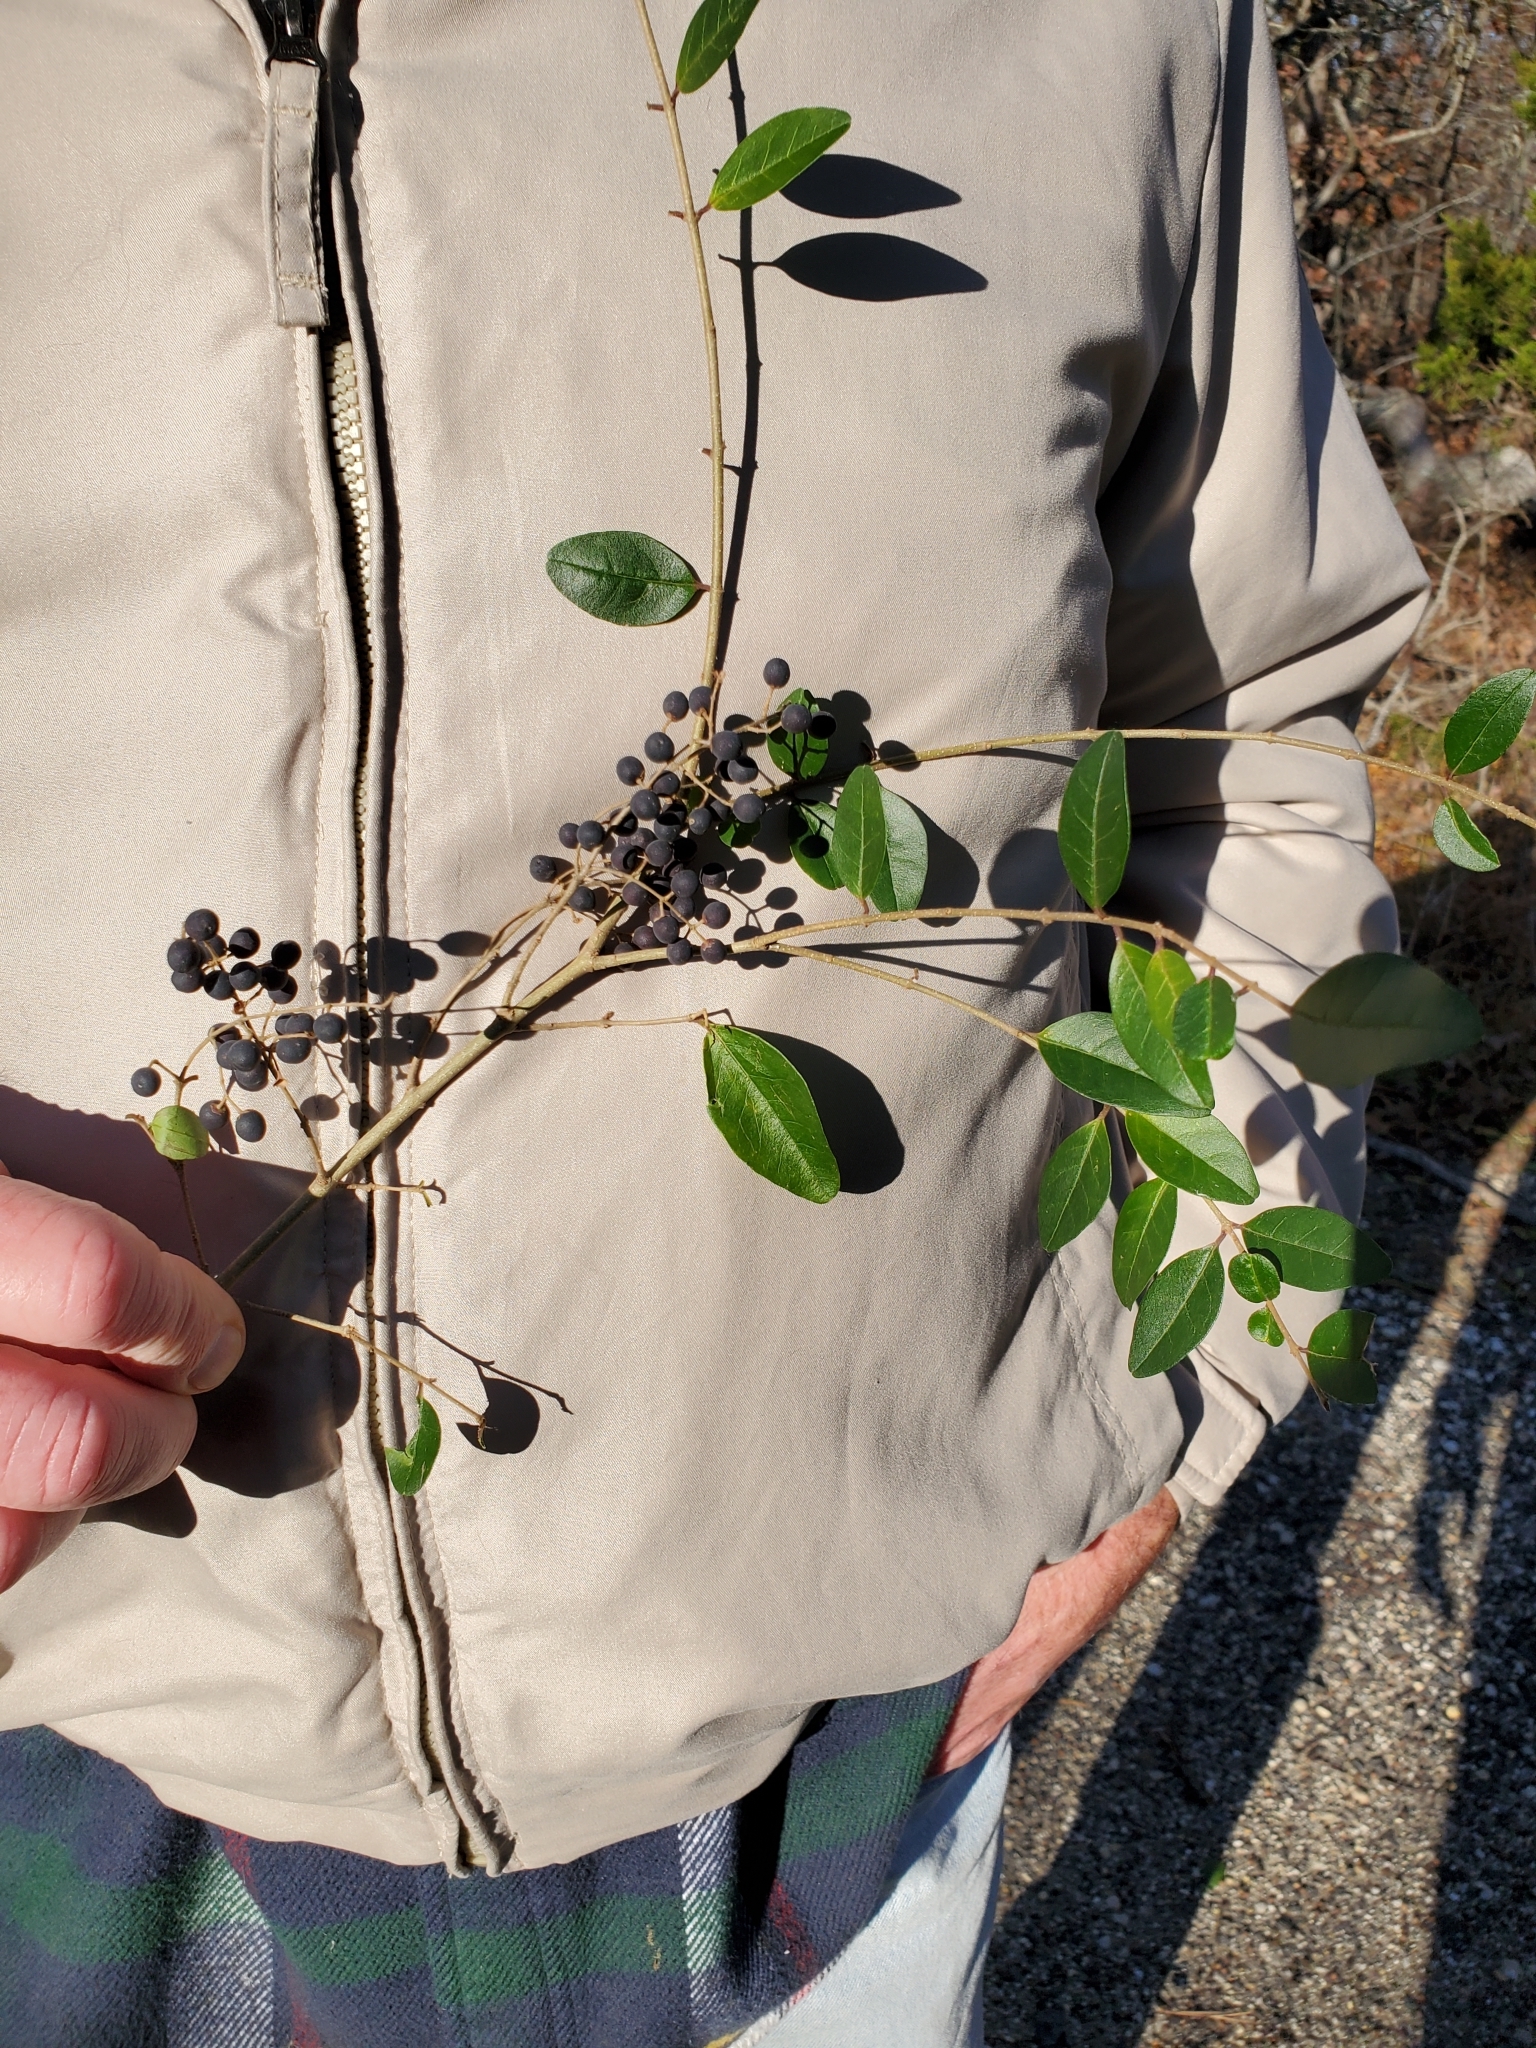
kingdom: Plantae
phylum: Tracheophyta
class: Magnoliopsida
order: Lamiales
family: Oleaceae
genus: Ligustrum
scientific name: Ligustrum sinense
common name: Chinese privet
